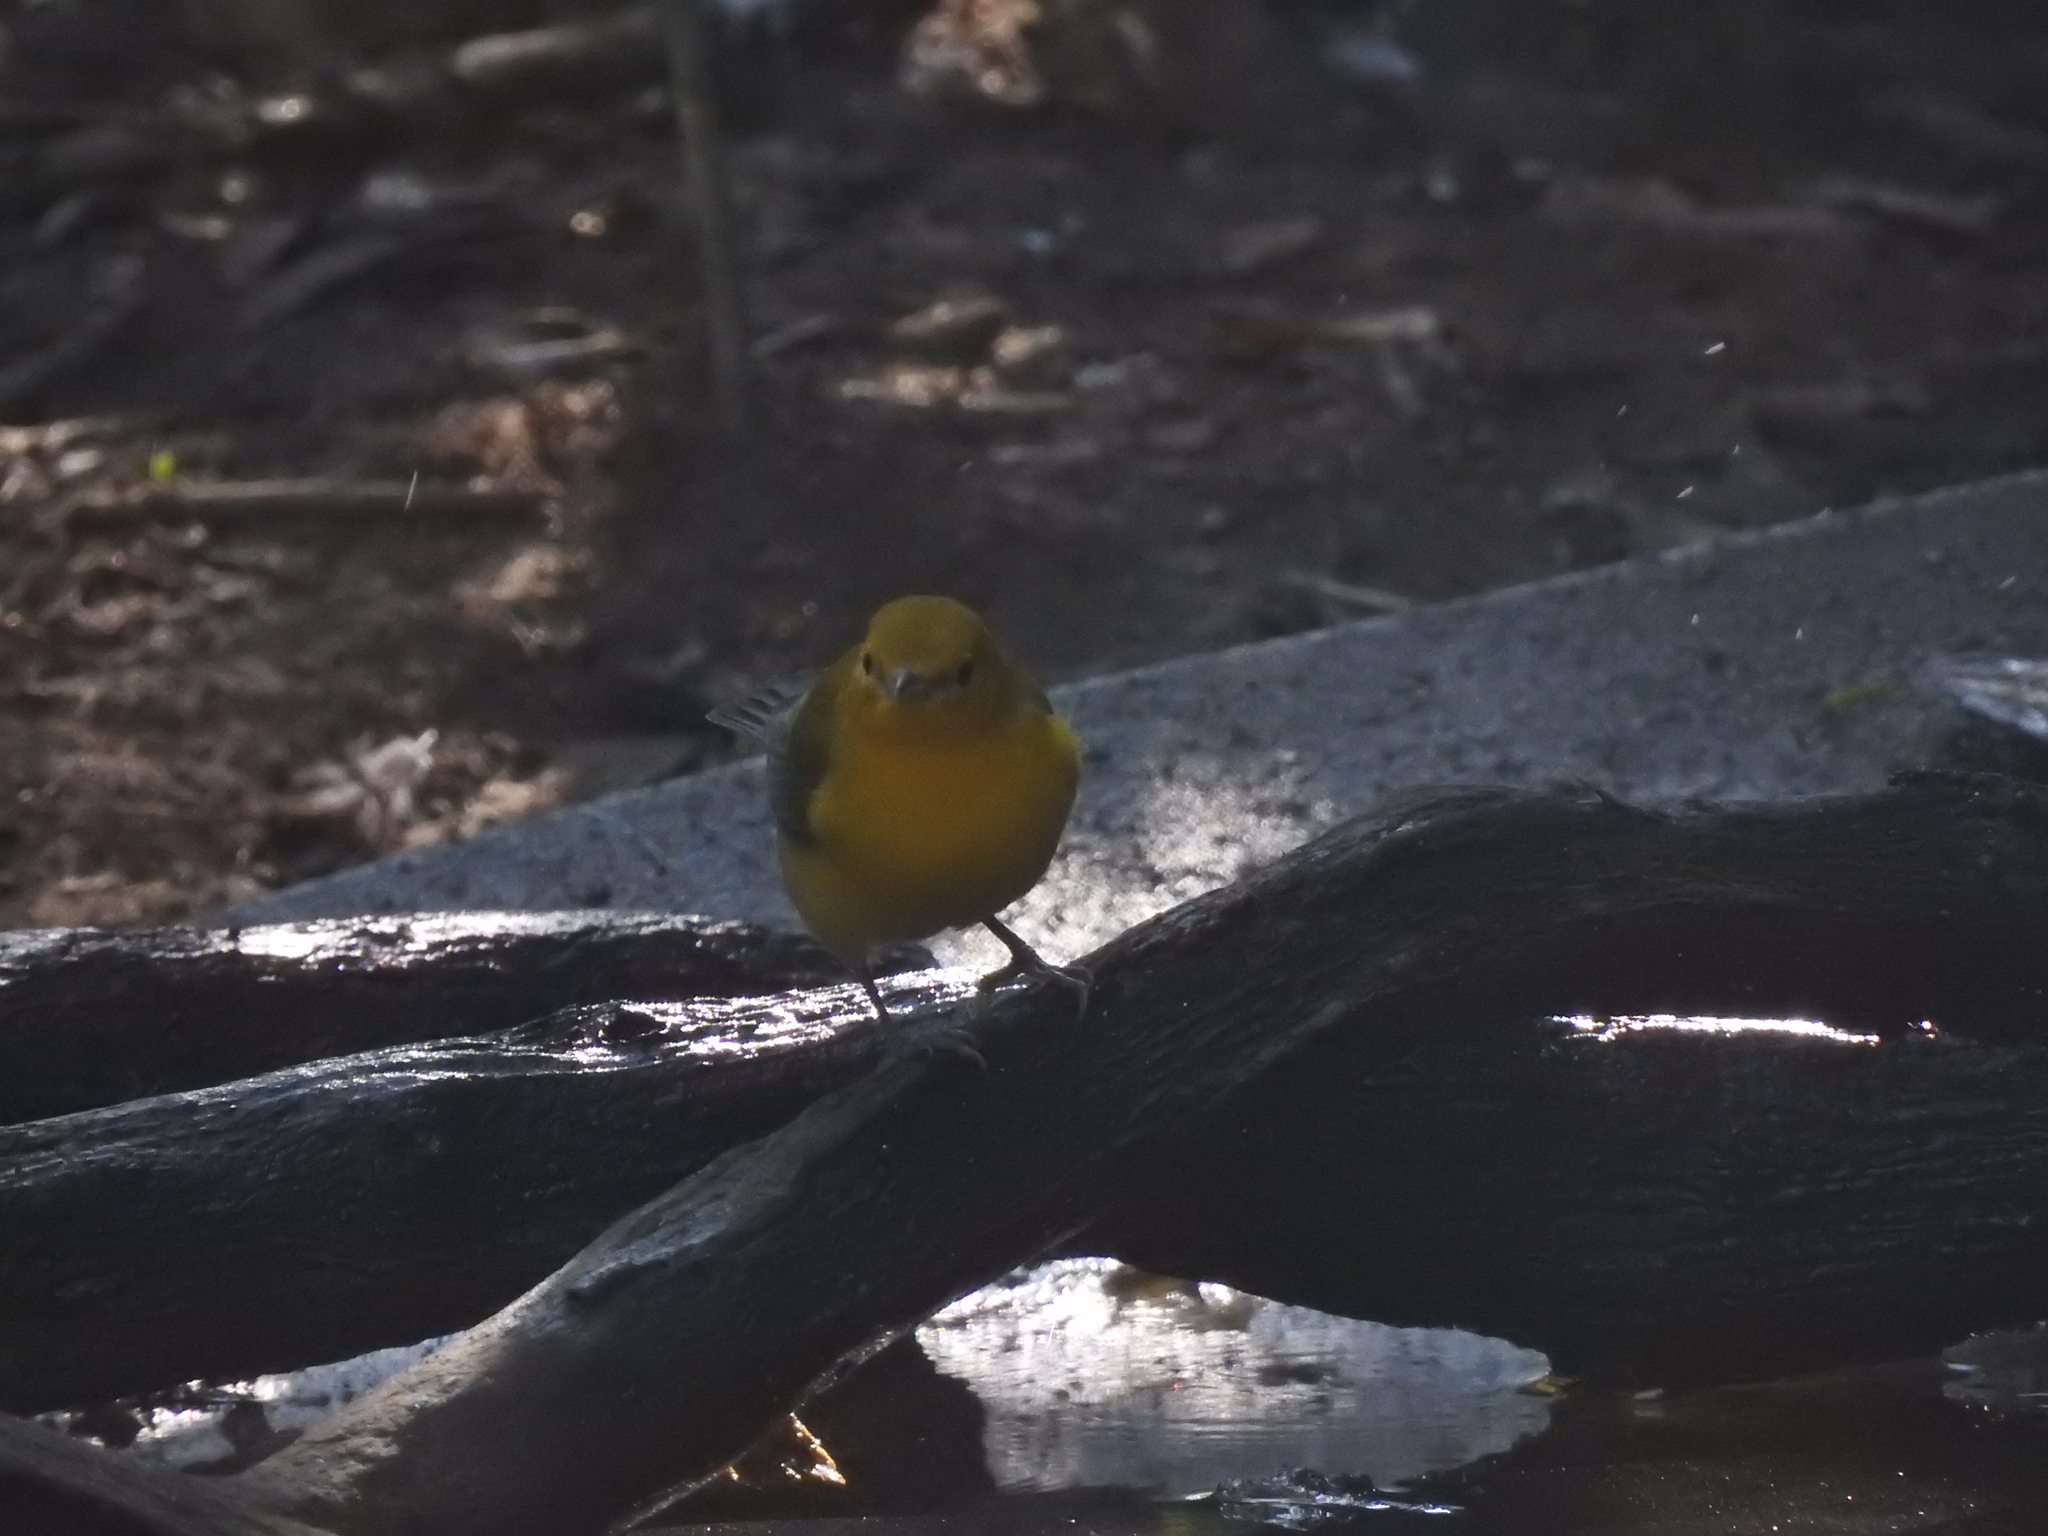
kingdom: Animalia
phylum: Chordata
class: Aves
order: Passeriformes
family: Parulidae
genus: Protonotaria
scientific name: Protonotaria citrea
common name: Prothonotary warbler
